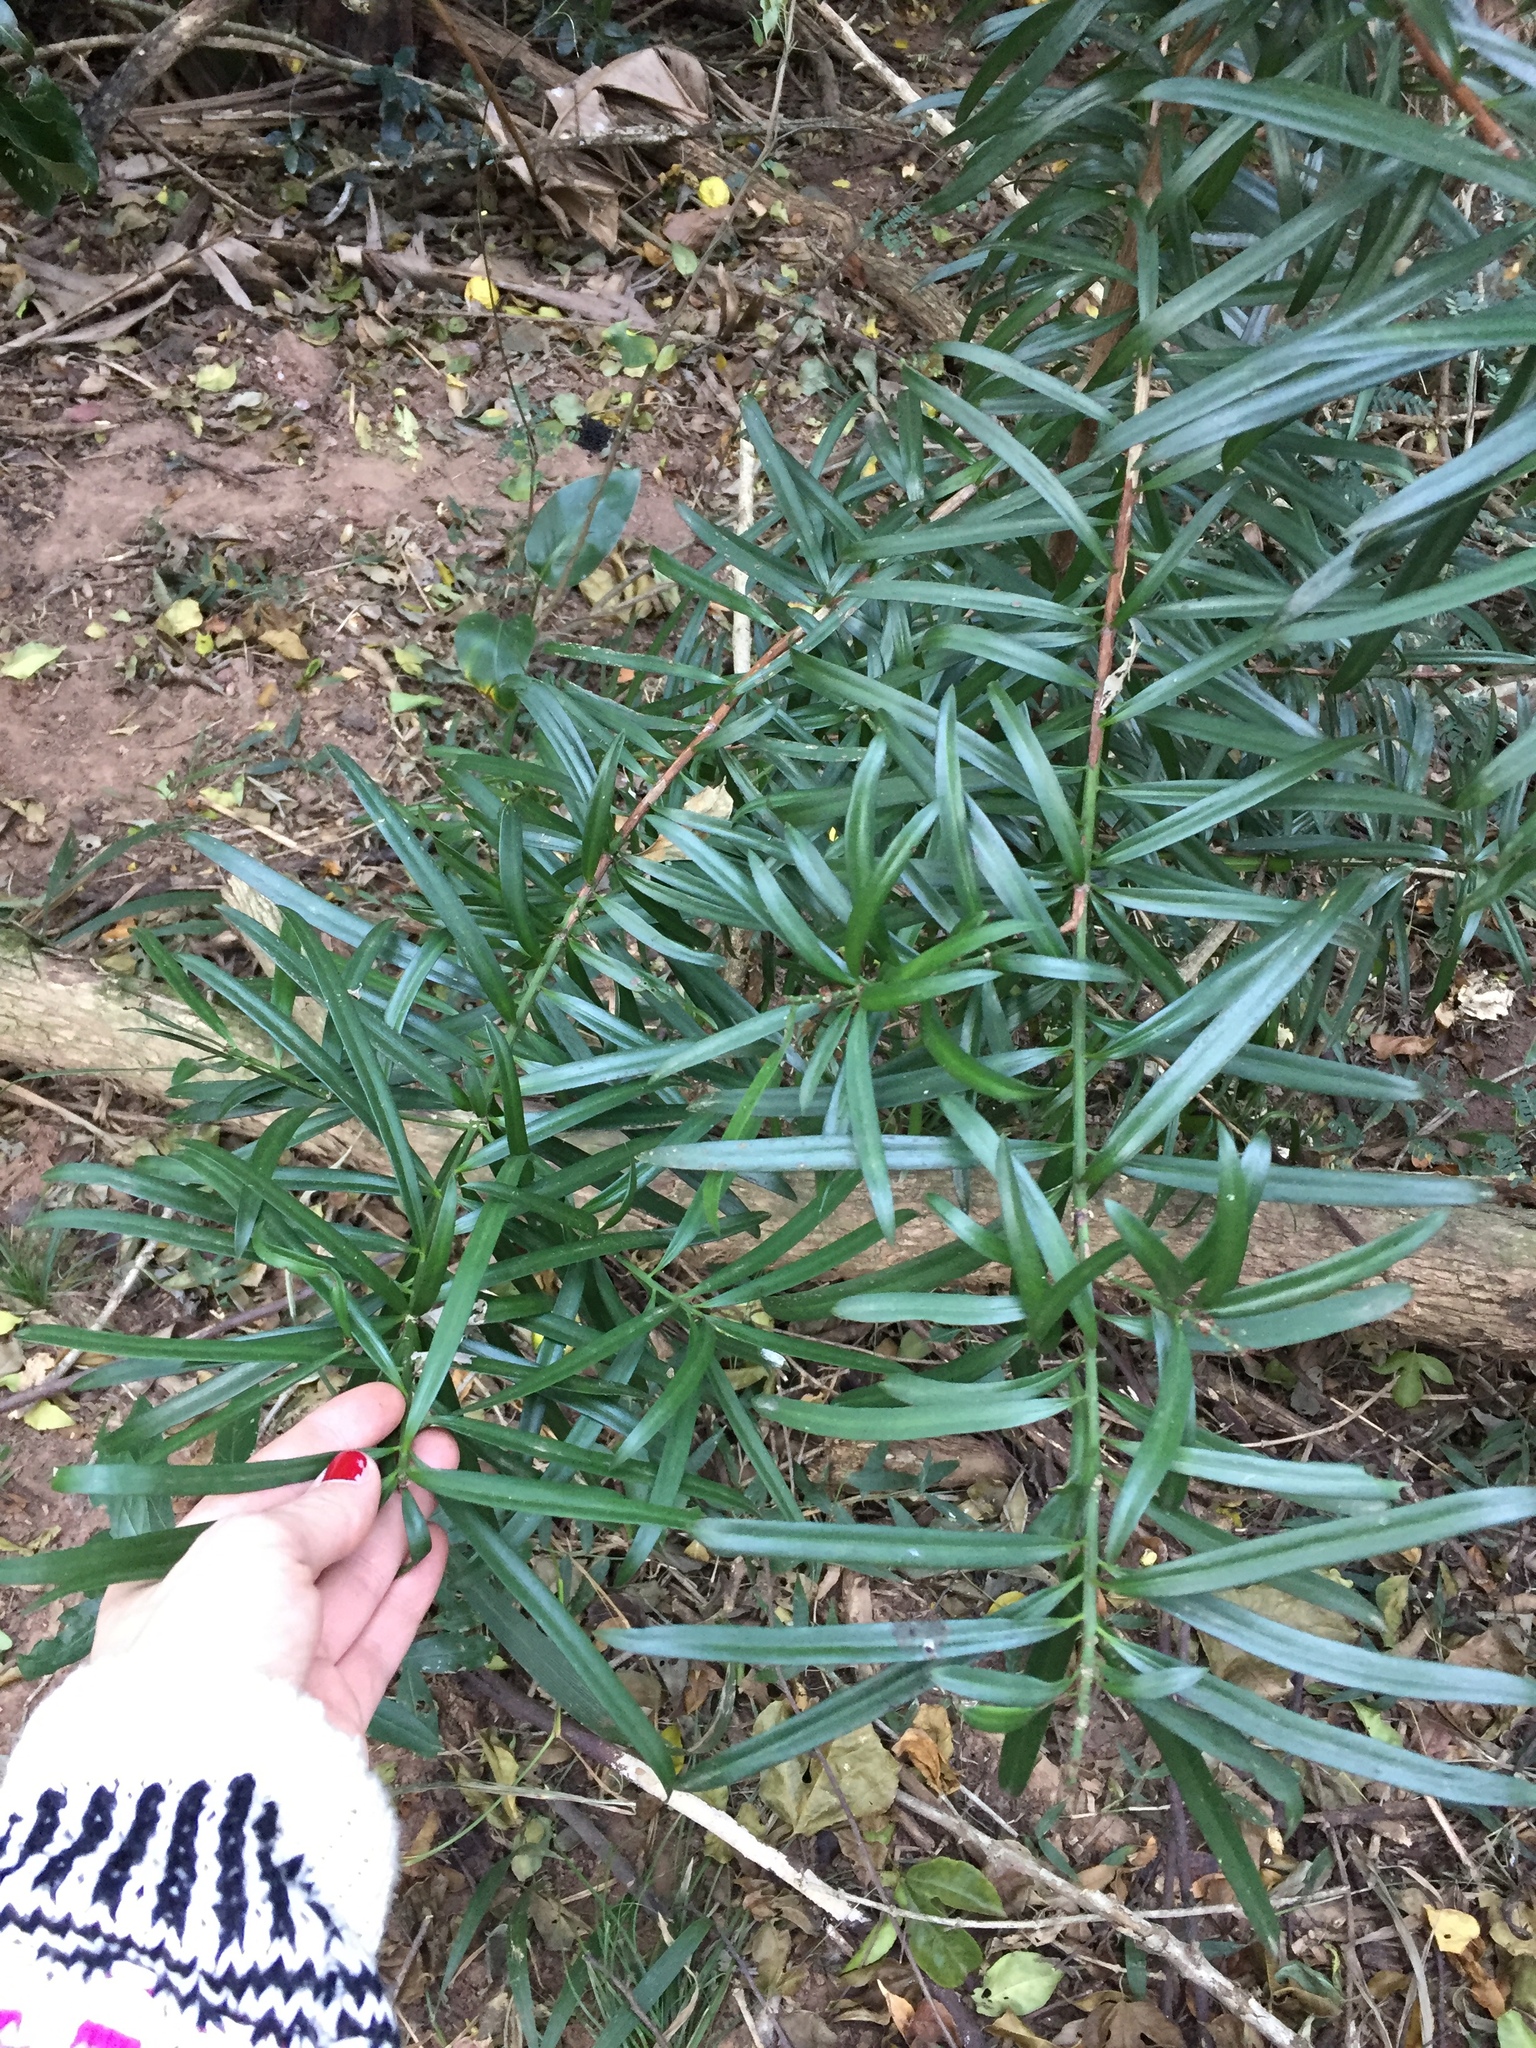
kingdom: Plantae
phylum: Tracheophyta
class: Pinopsida
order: Pinales
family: Podocarpaceae
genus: Podocarpus
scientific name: Podocarpus henkelii
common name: Henkel's yellowwood
